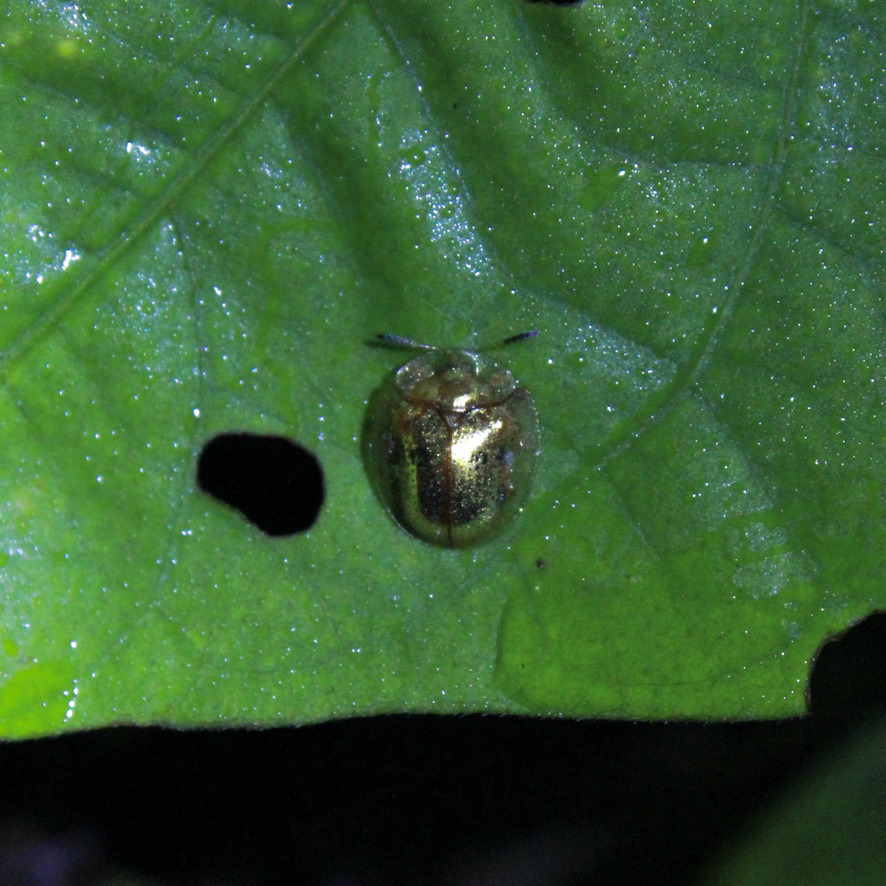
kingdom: Animalia
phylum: Arthropoda
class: Insecta
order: Coleoptera
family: Chrysomelidae
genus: Charidotella
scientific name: Charidotella sexpunctata
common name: Golden tortoise beetle
